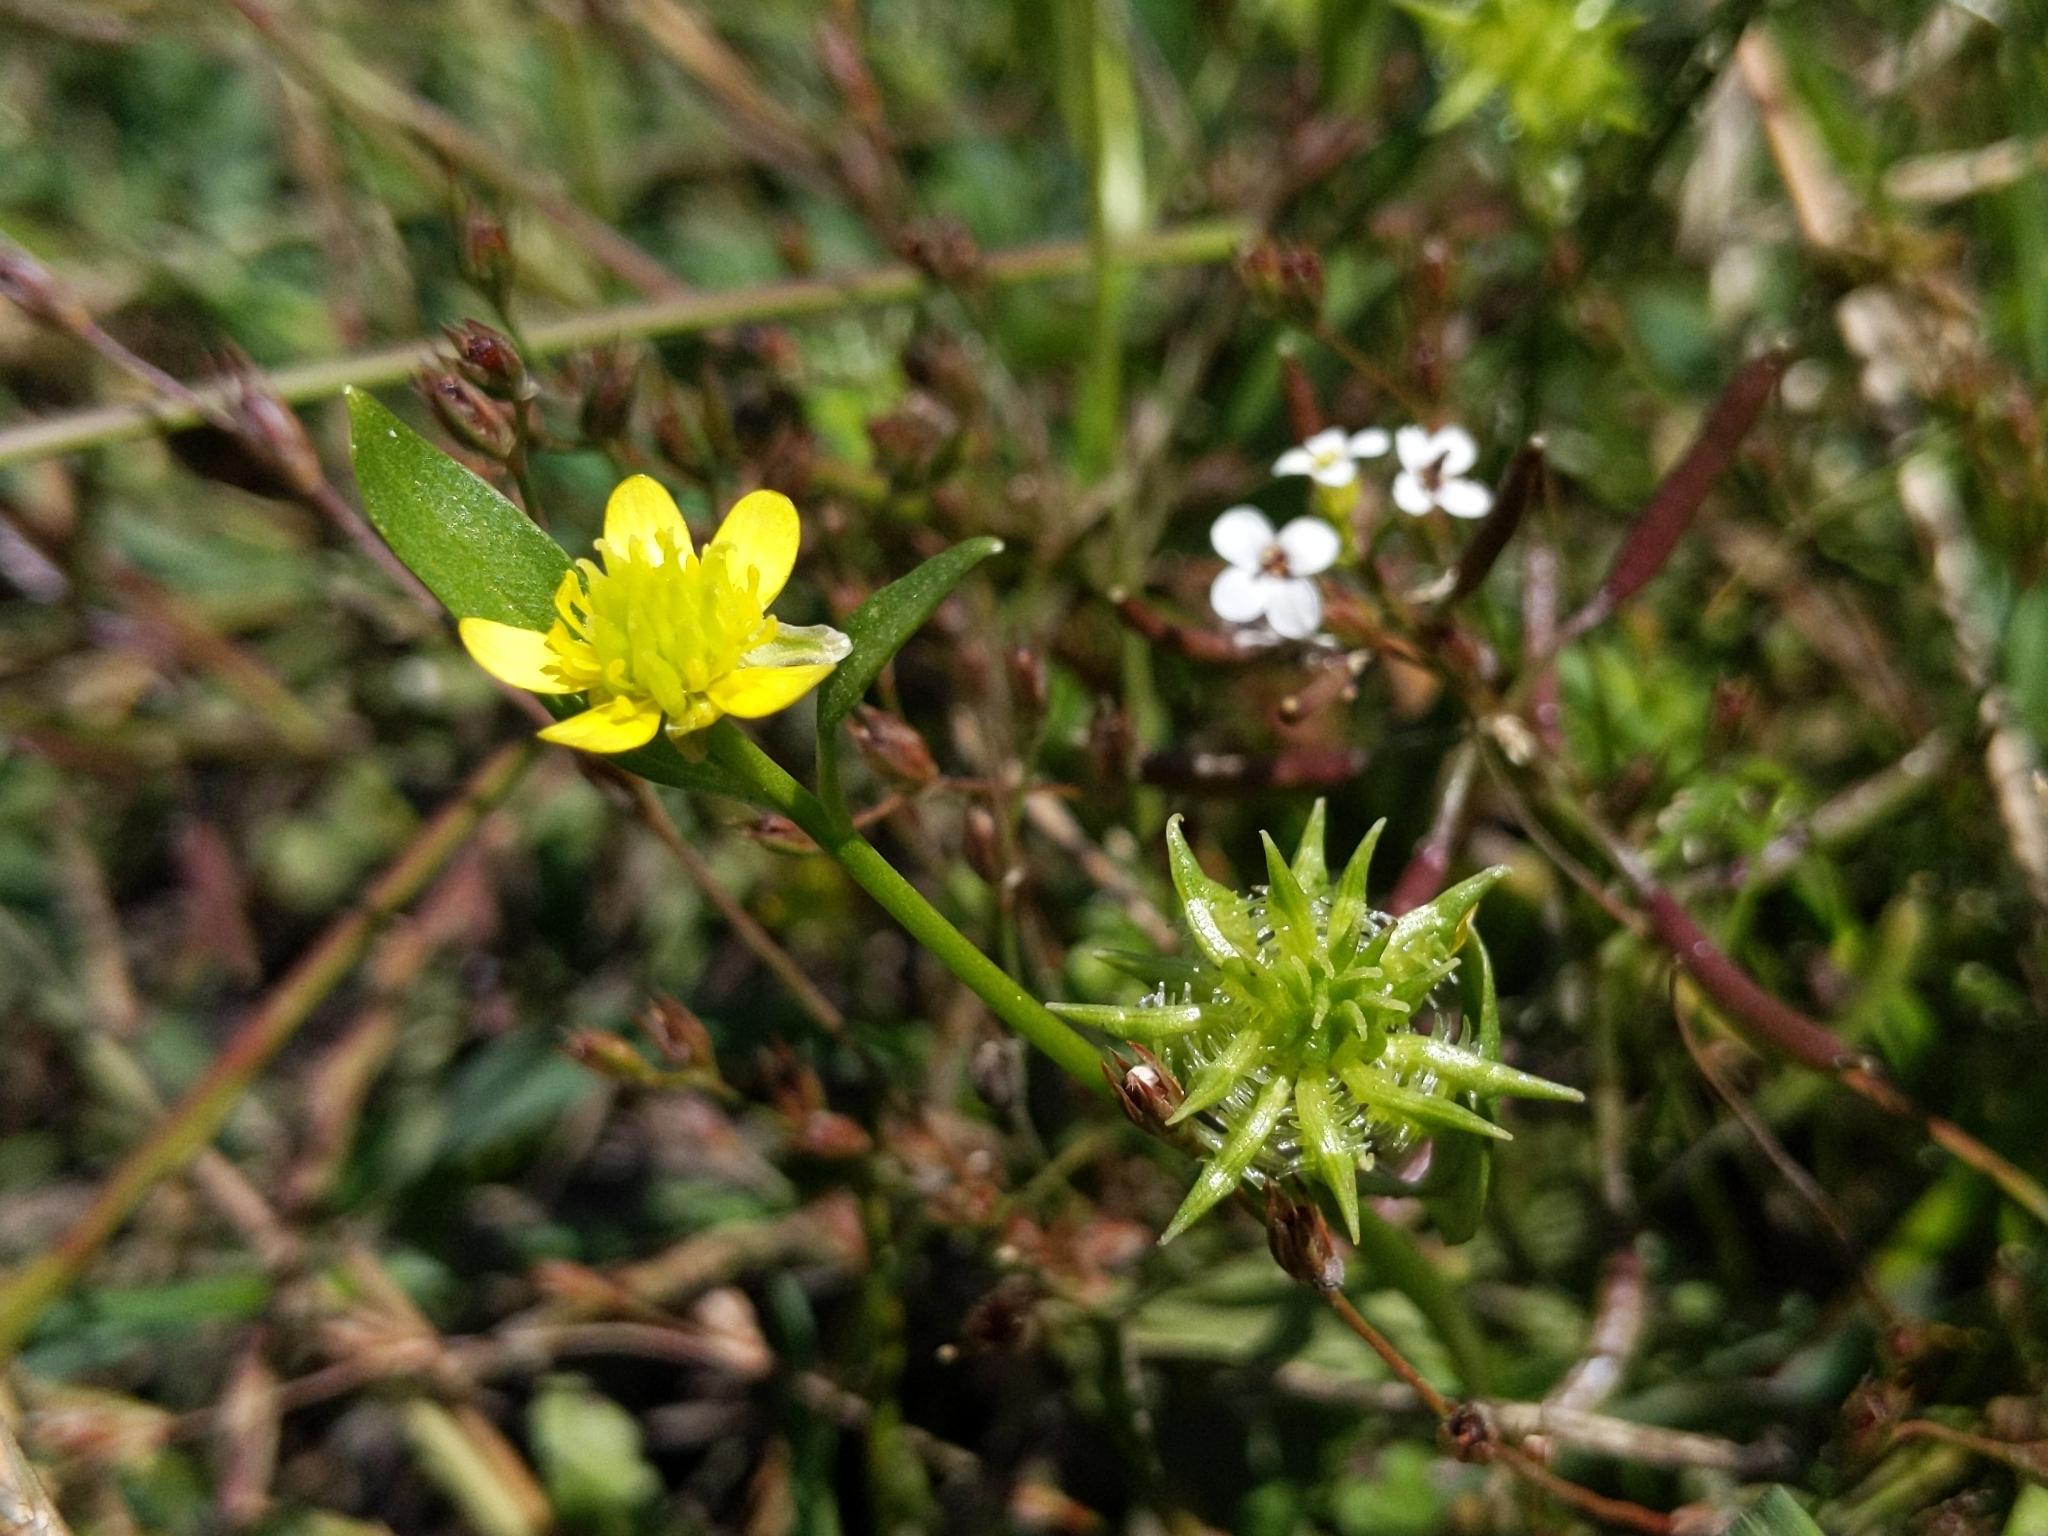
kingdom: Plantae
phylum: Tracheophyta
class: Magnoliopsida
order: Ranunculales
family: Ranunculaceae
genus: Ranunculus
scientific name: Ranunculus muricatus
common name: Rough-fruited buttercup
